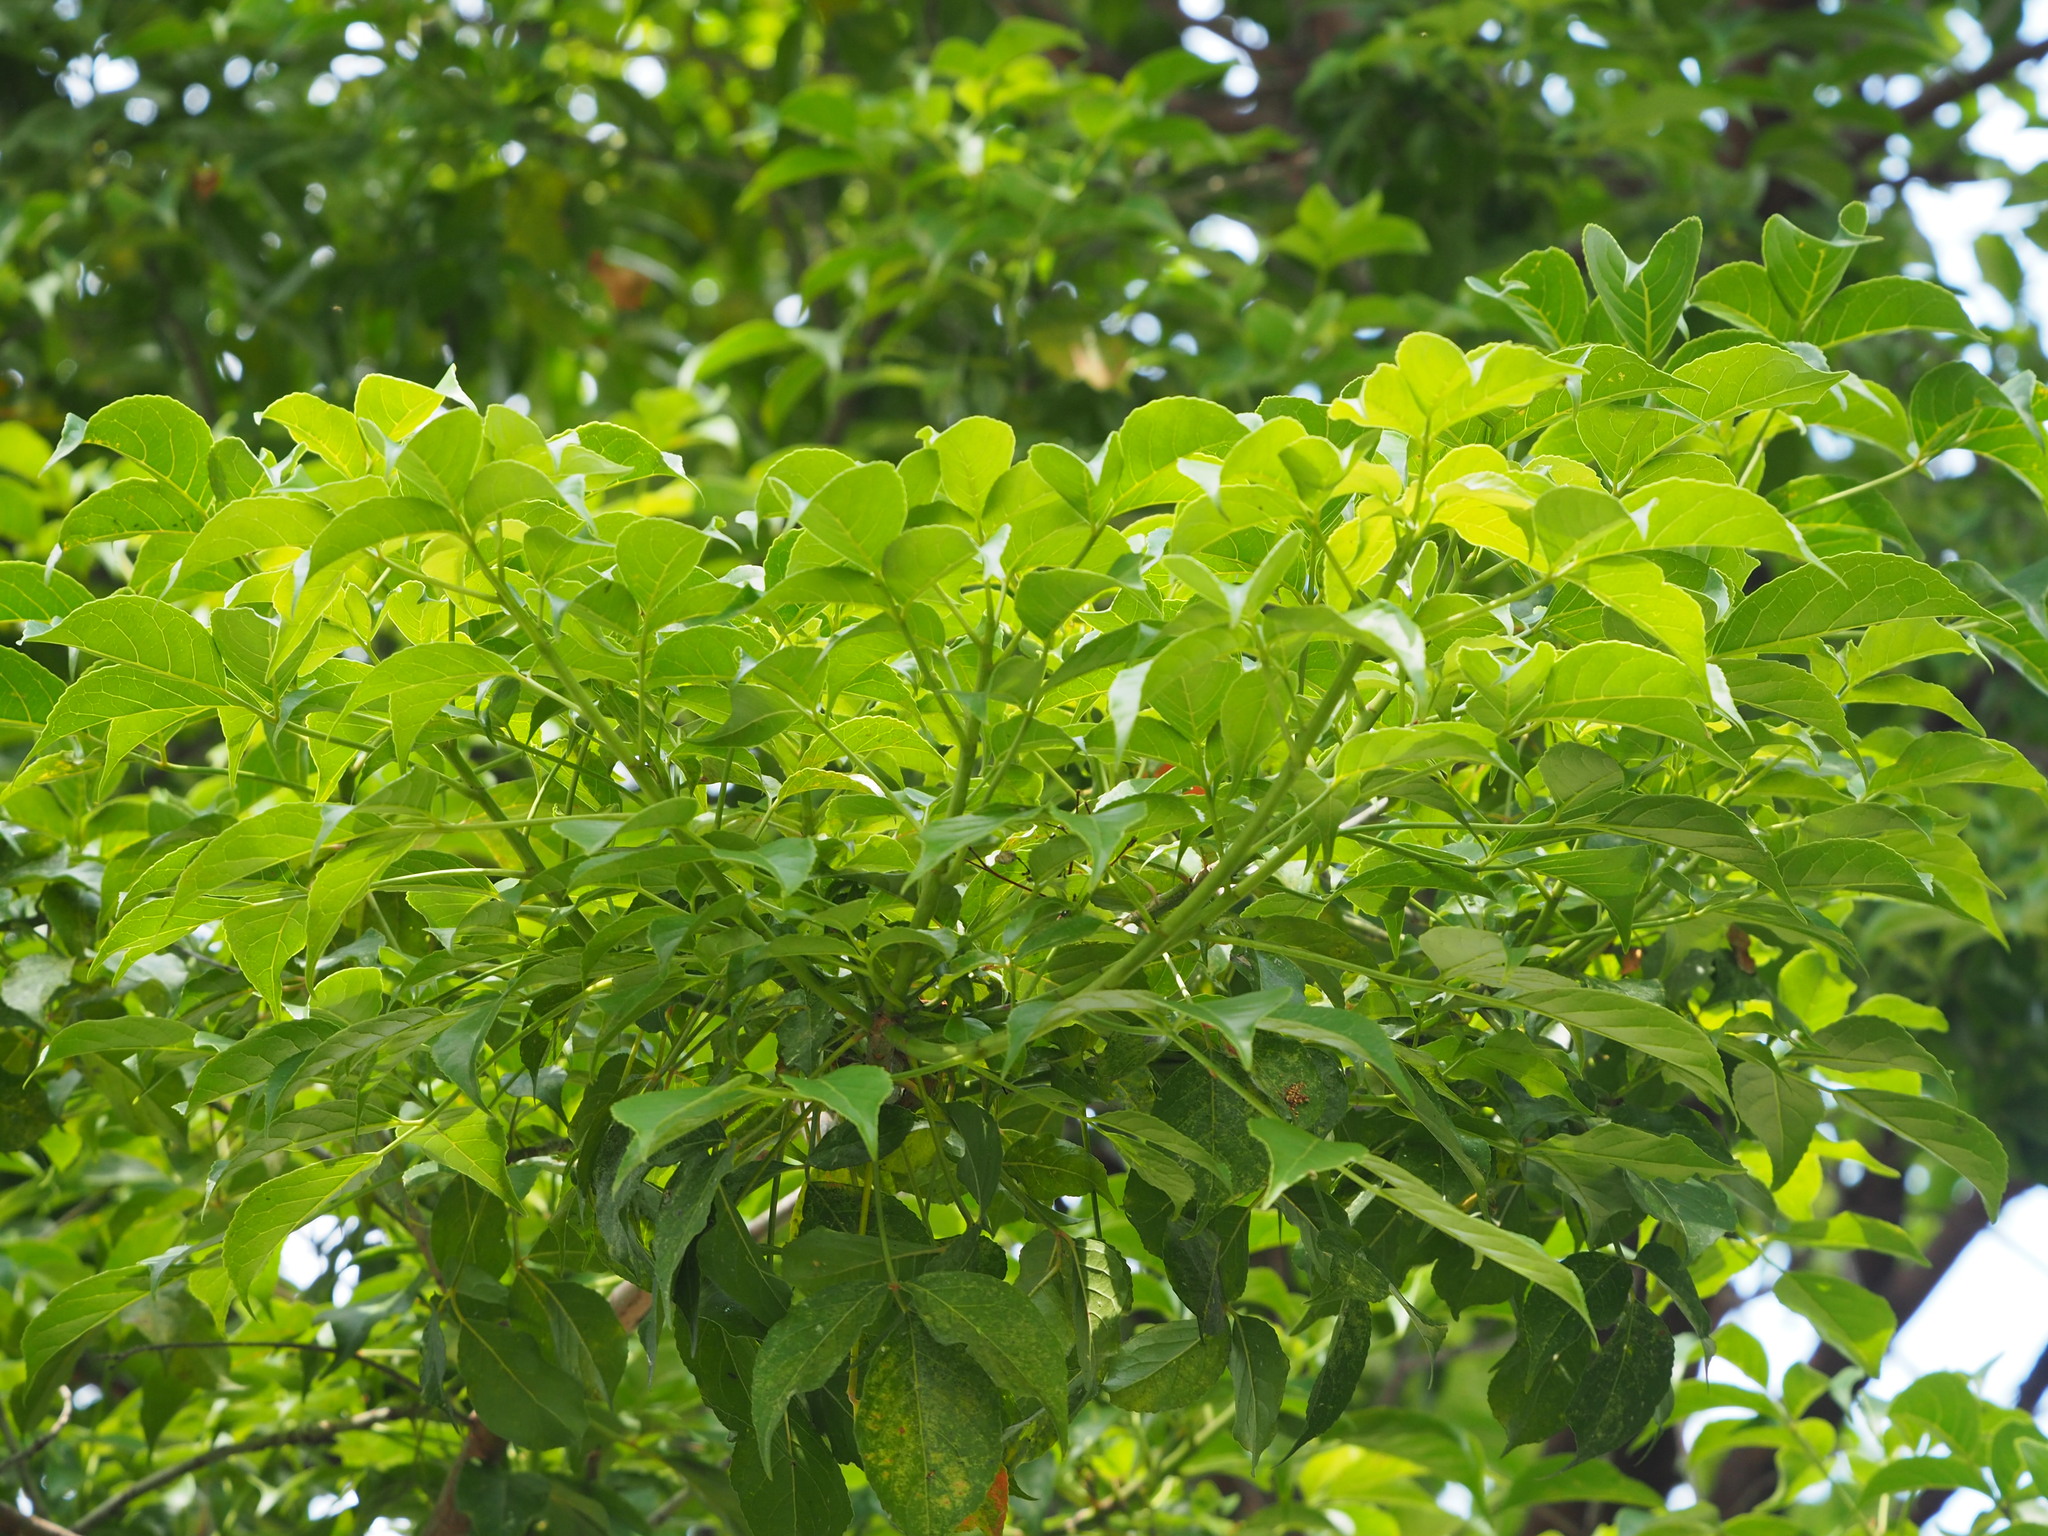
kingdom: Plantae
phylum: Tracheophyta
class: Magnoliopsida
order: Malpighiales
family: Phyllanthaceae
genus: Bischofia
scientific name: Bischofia javanica
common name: Javanese bishopwood
